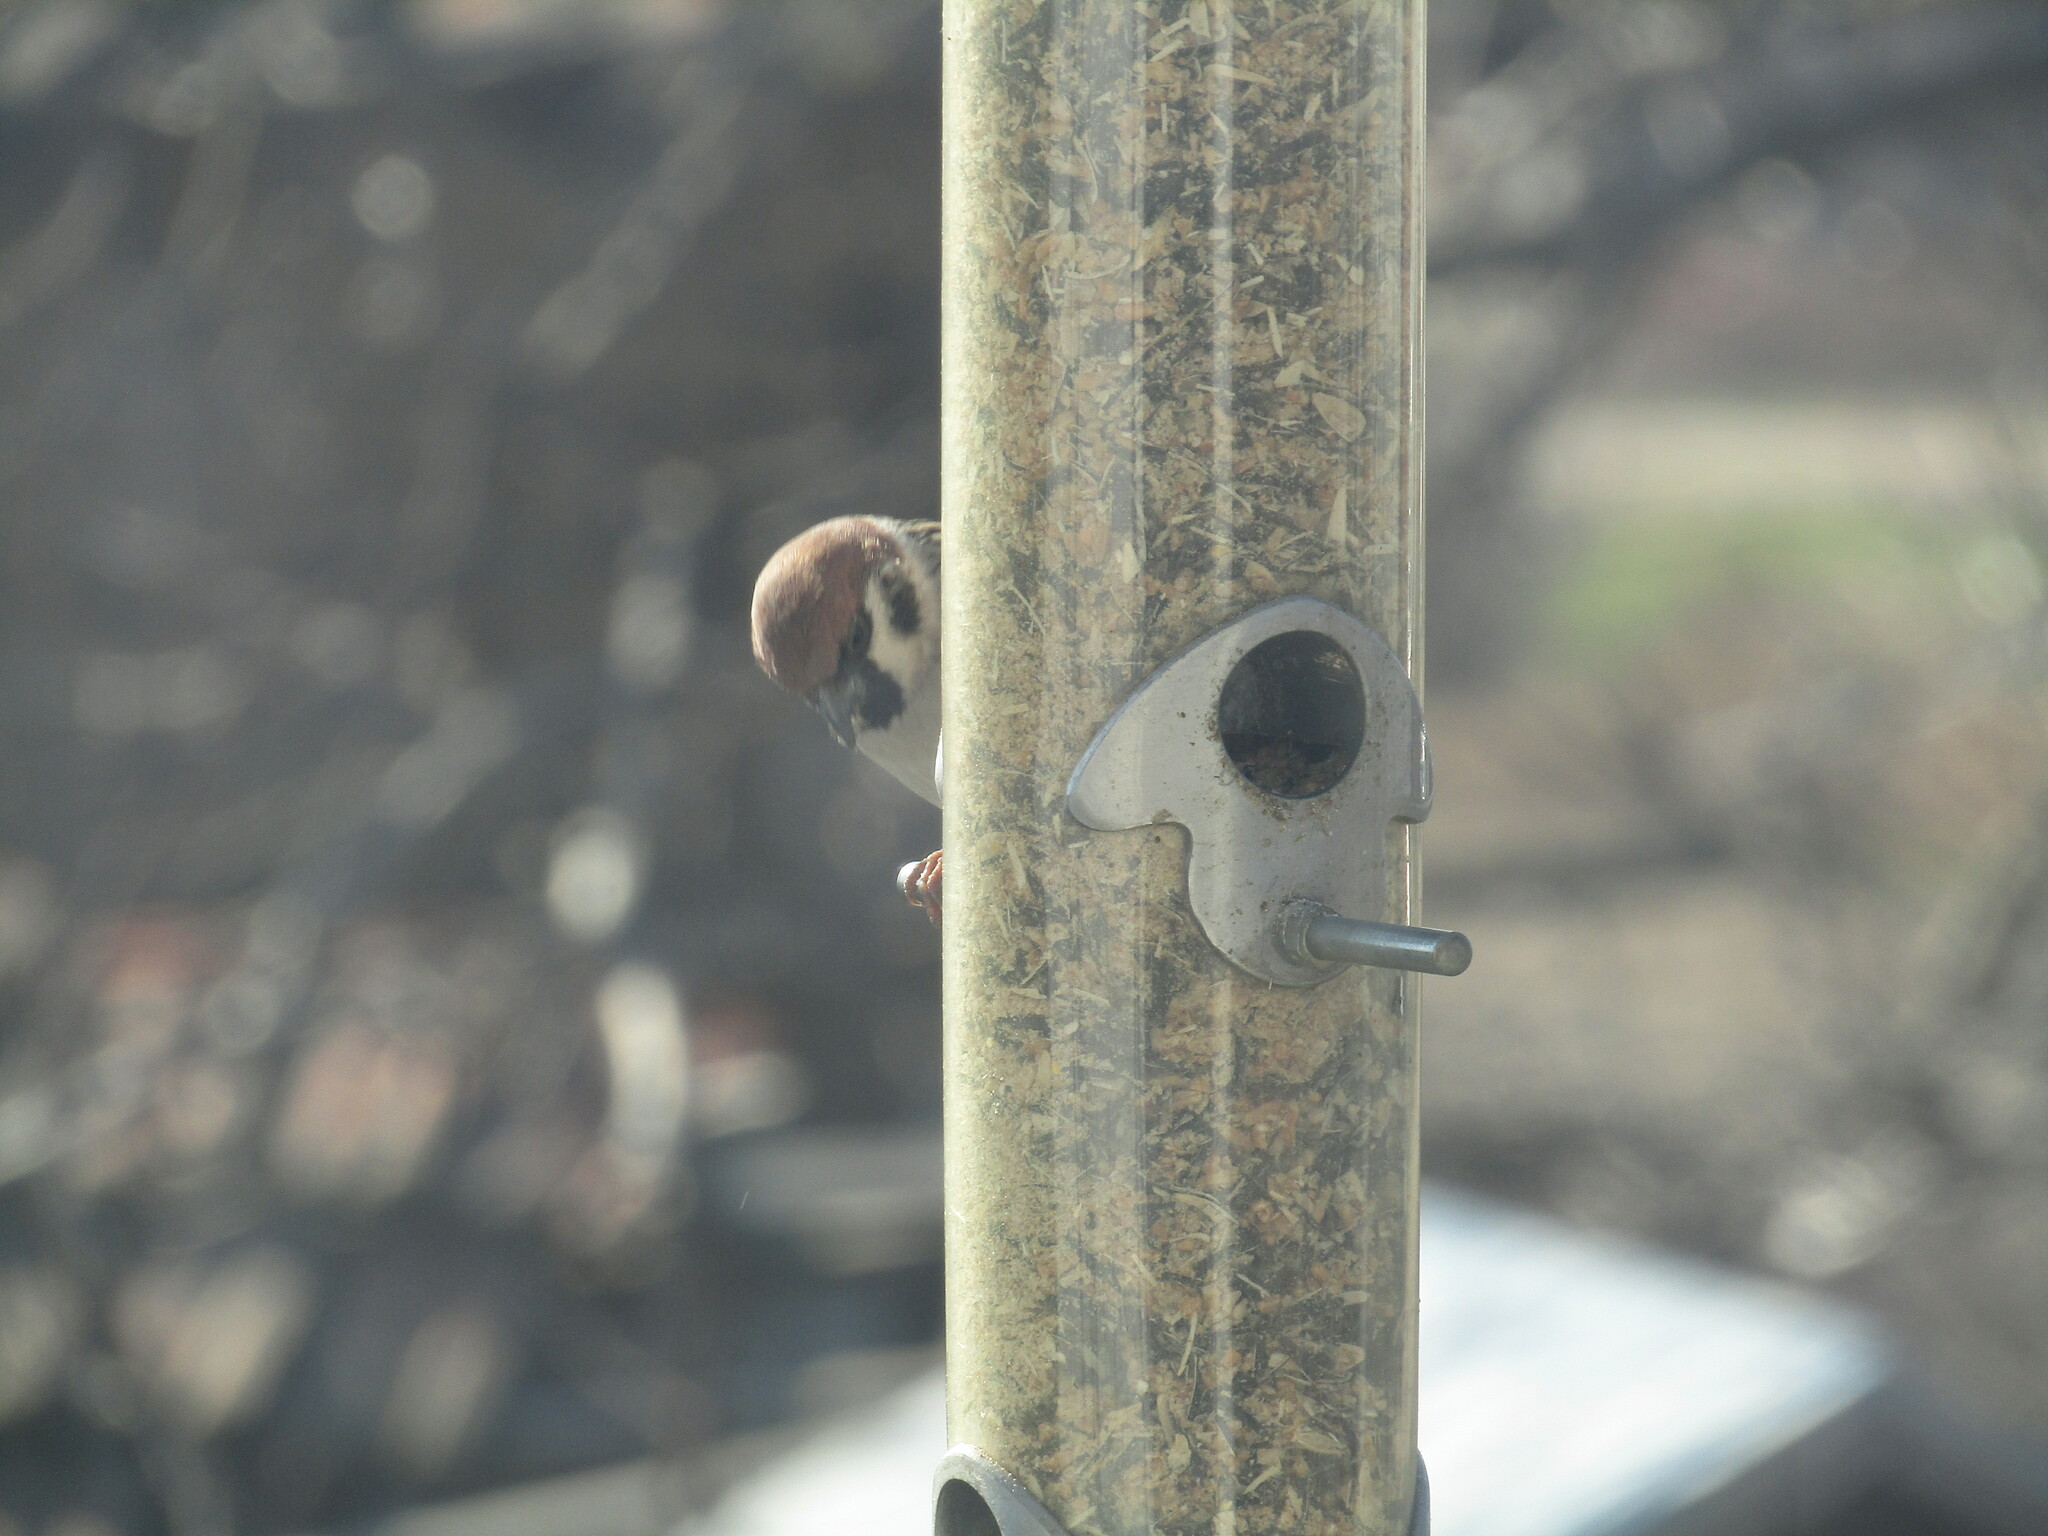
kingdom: Animalia
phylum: Chordata
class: Aves
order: Passeriformes
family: Passeridae
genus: Passer
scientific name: Passer montanus
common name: Eurasian tree sparrow
